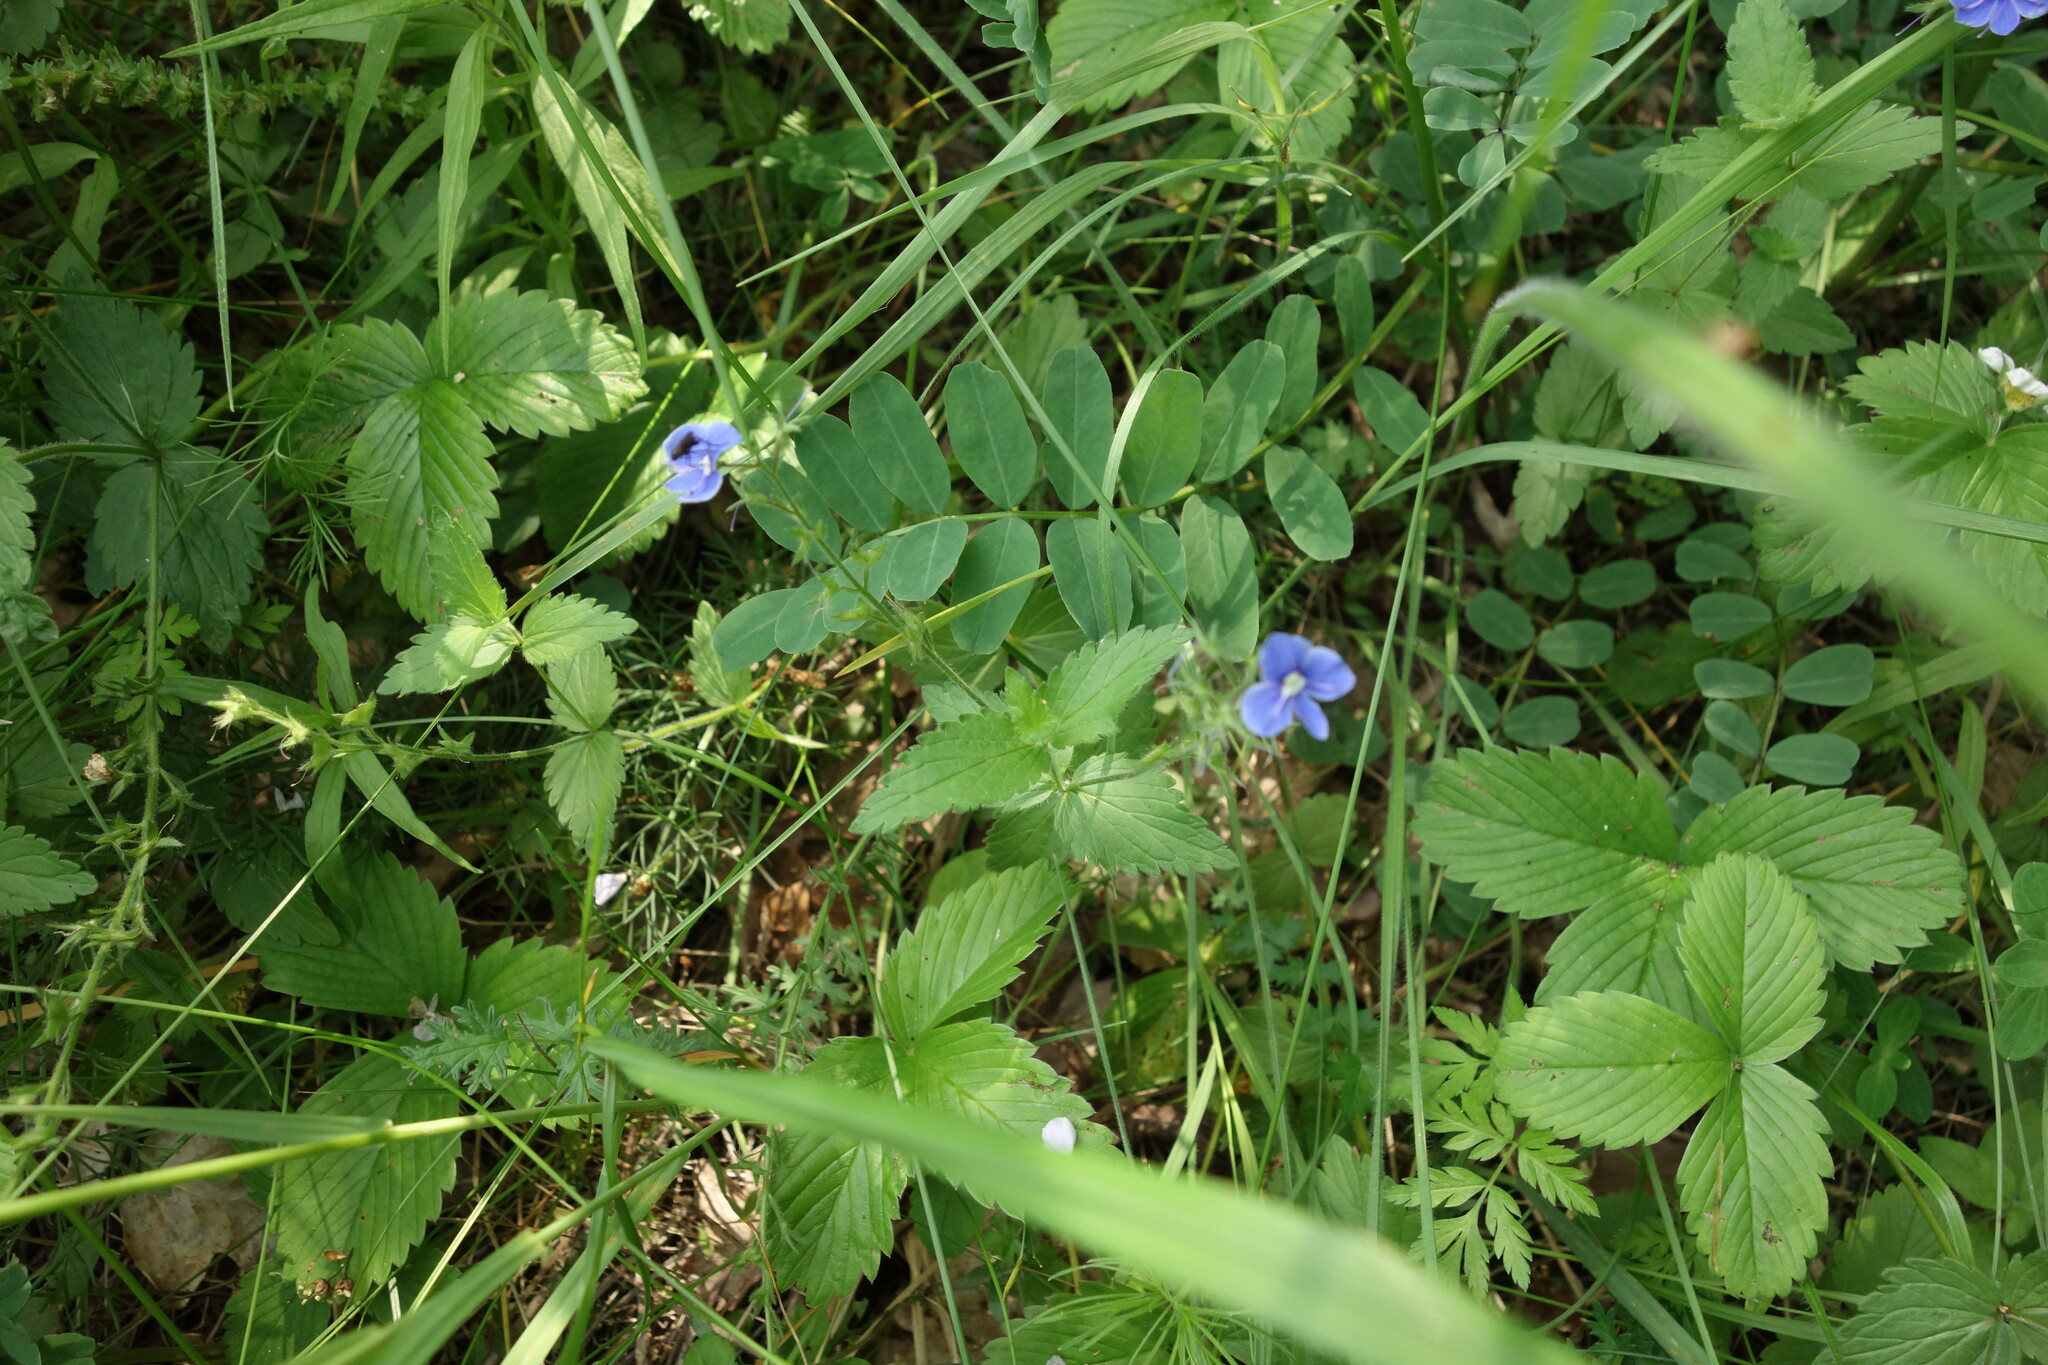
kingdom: Plantae
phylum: Tracheophyta
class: Magnoliopsida
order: Lamiales
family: Plantaginaceae
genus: Veronica
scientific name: Veronica chamaedrys
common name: Germander speedwell
